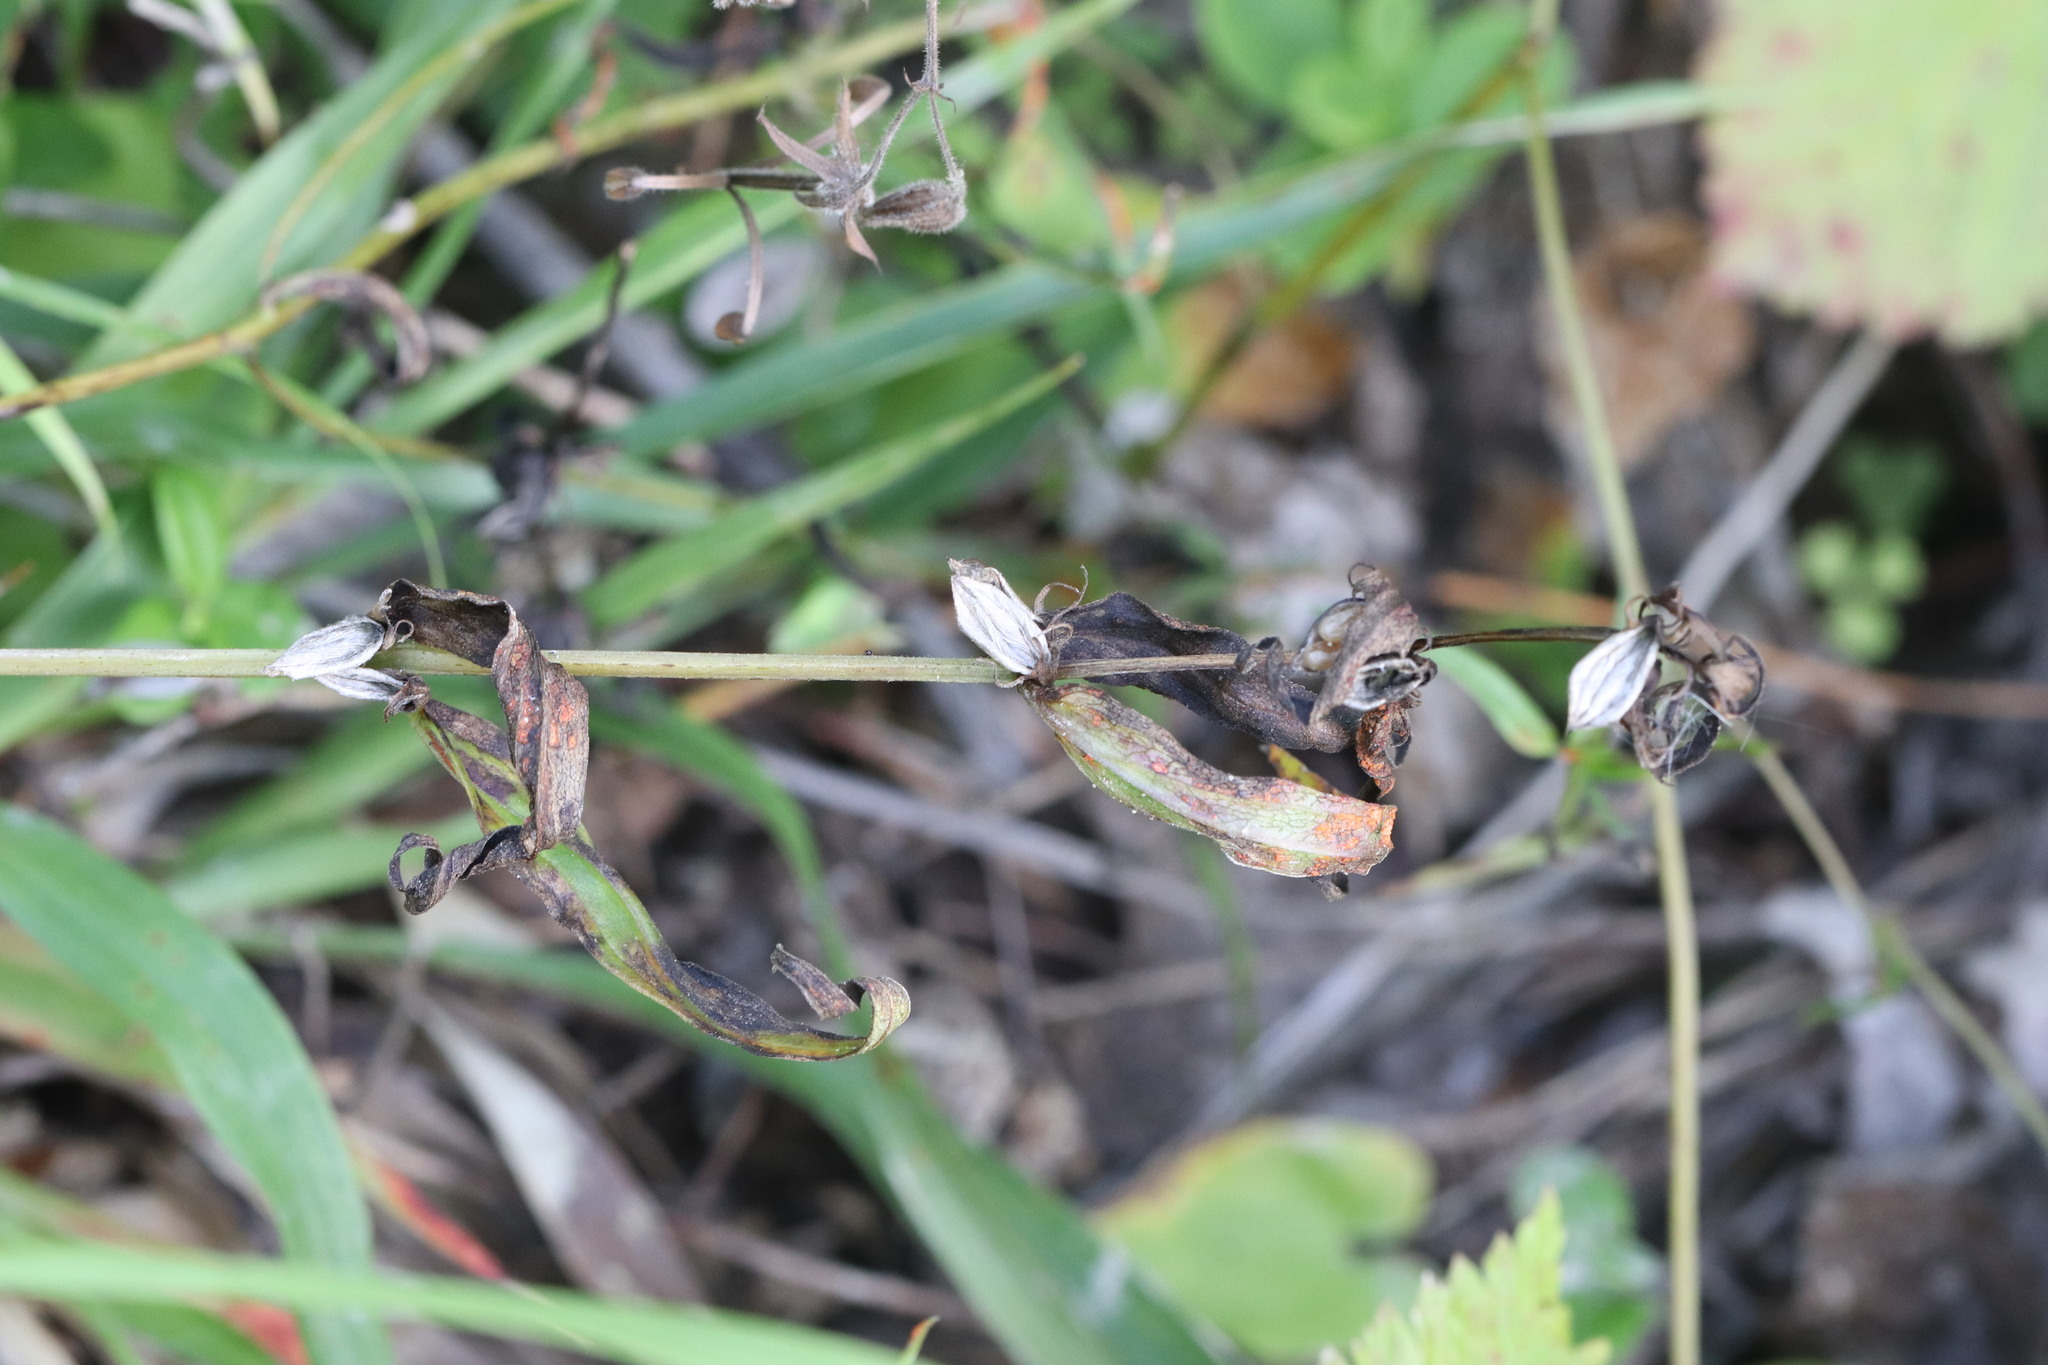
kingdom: Plantae
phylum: Tracheophyta
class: Magnoliopsida
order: Lamiales
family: Orobanchaceae
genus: Melampyrum
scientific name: Melampyrum pratense
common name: Common cow-wheat
